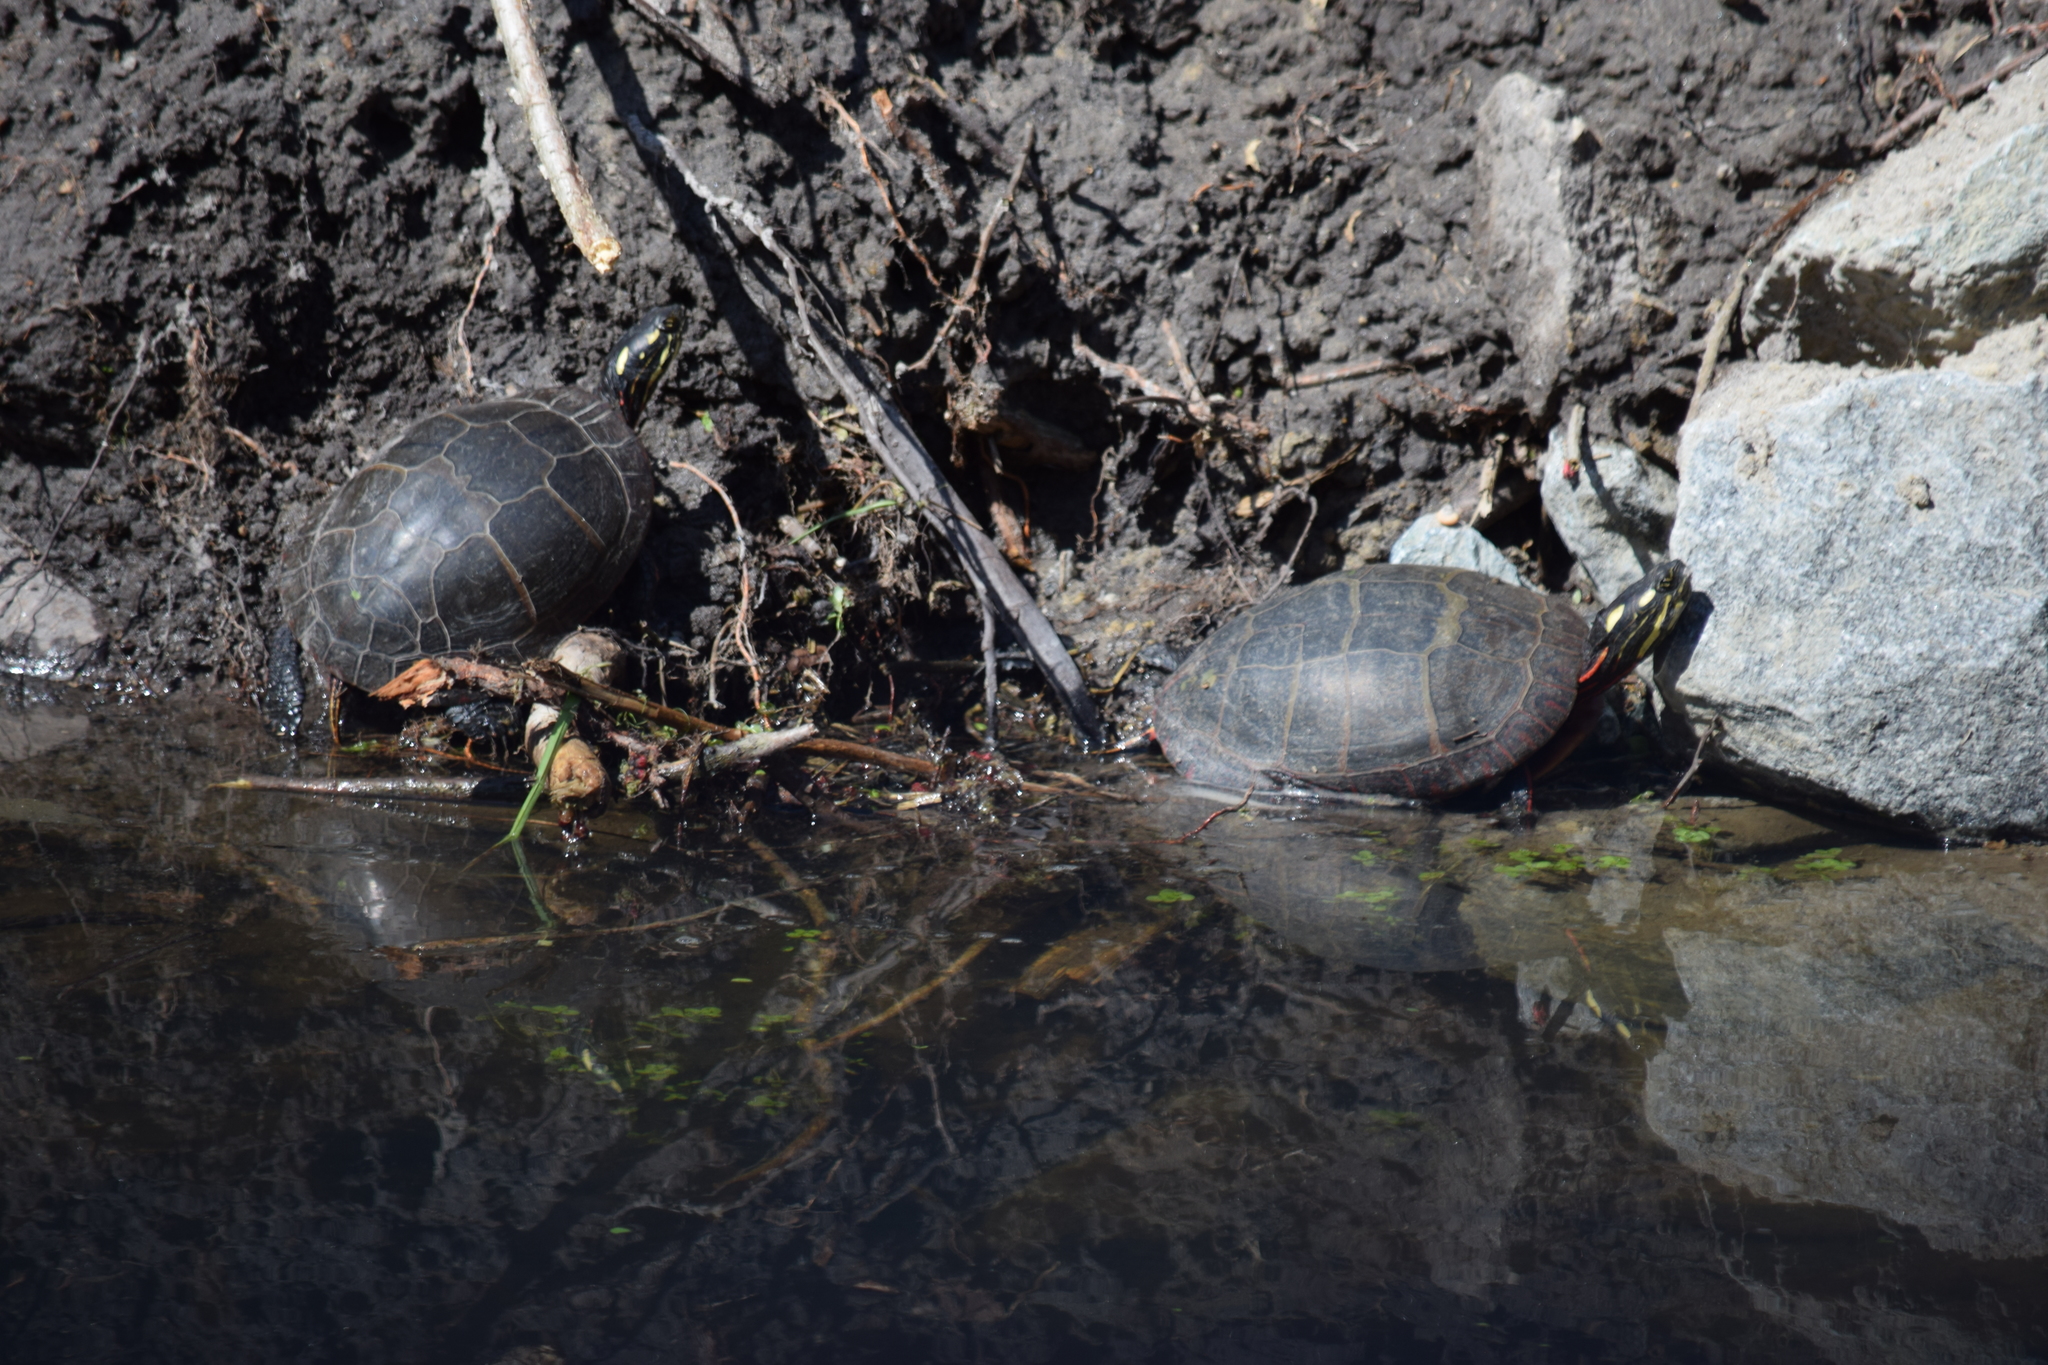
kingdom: Animalia
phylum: Chordata
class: Testudines
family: Emydidae
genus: Chrysemys
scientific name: Chrysemys picta
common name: Painted turtle
